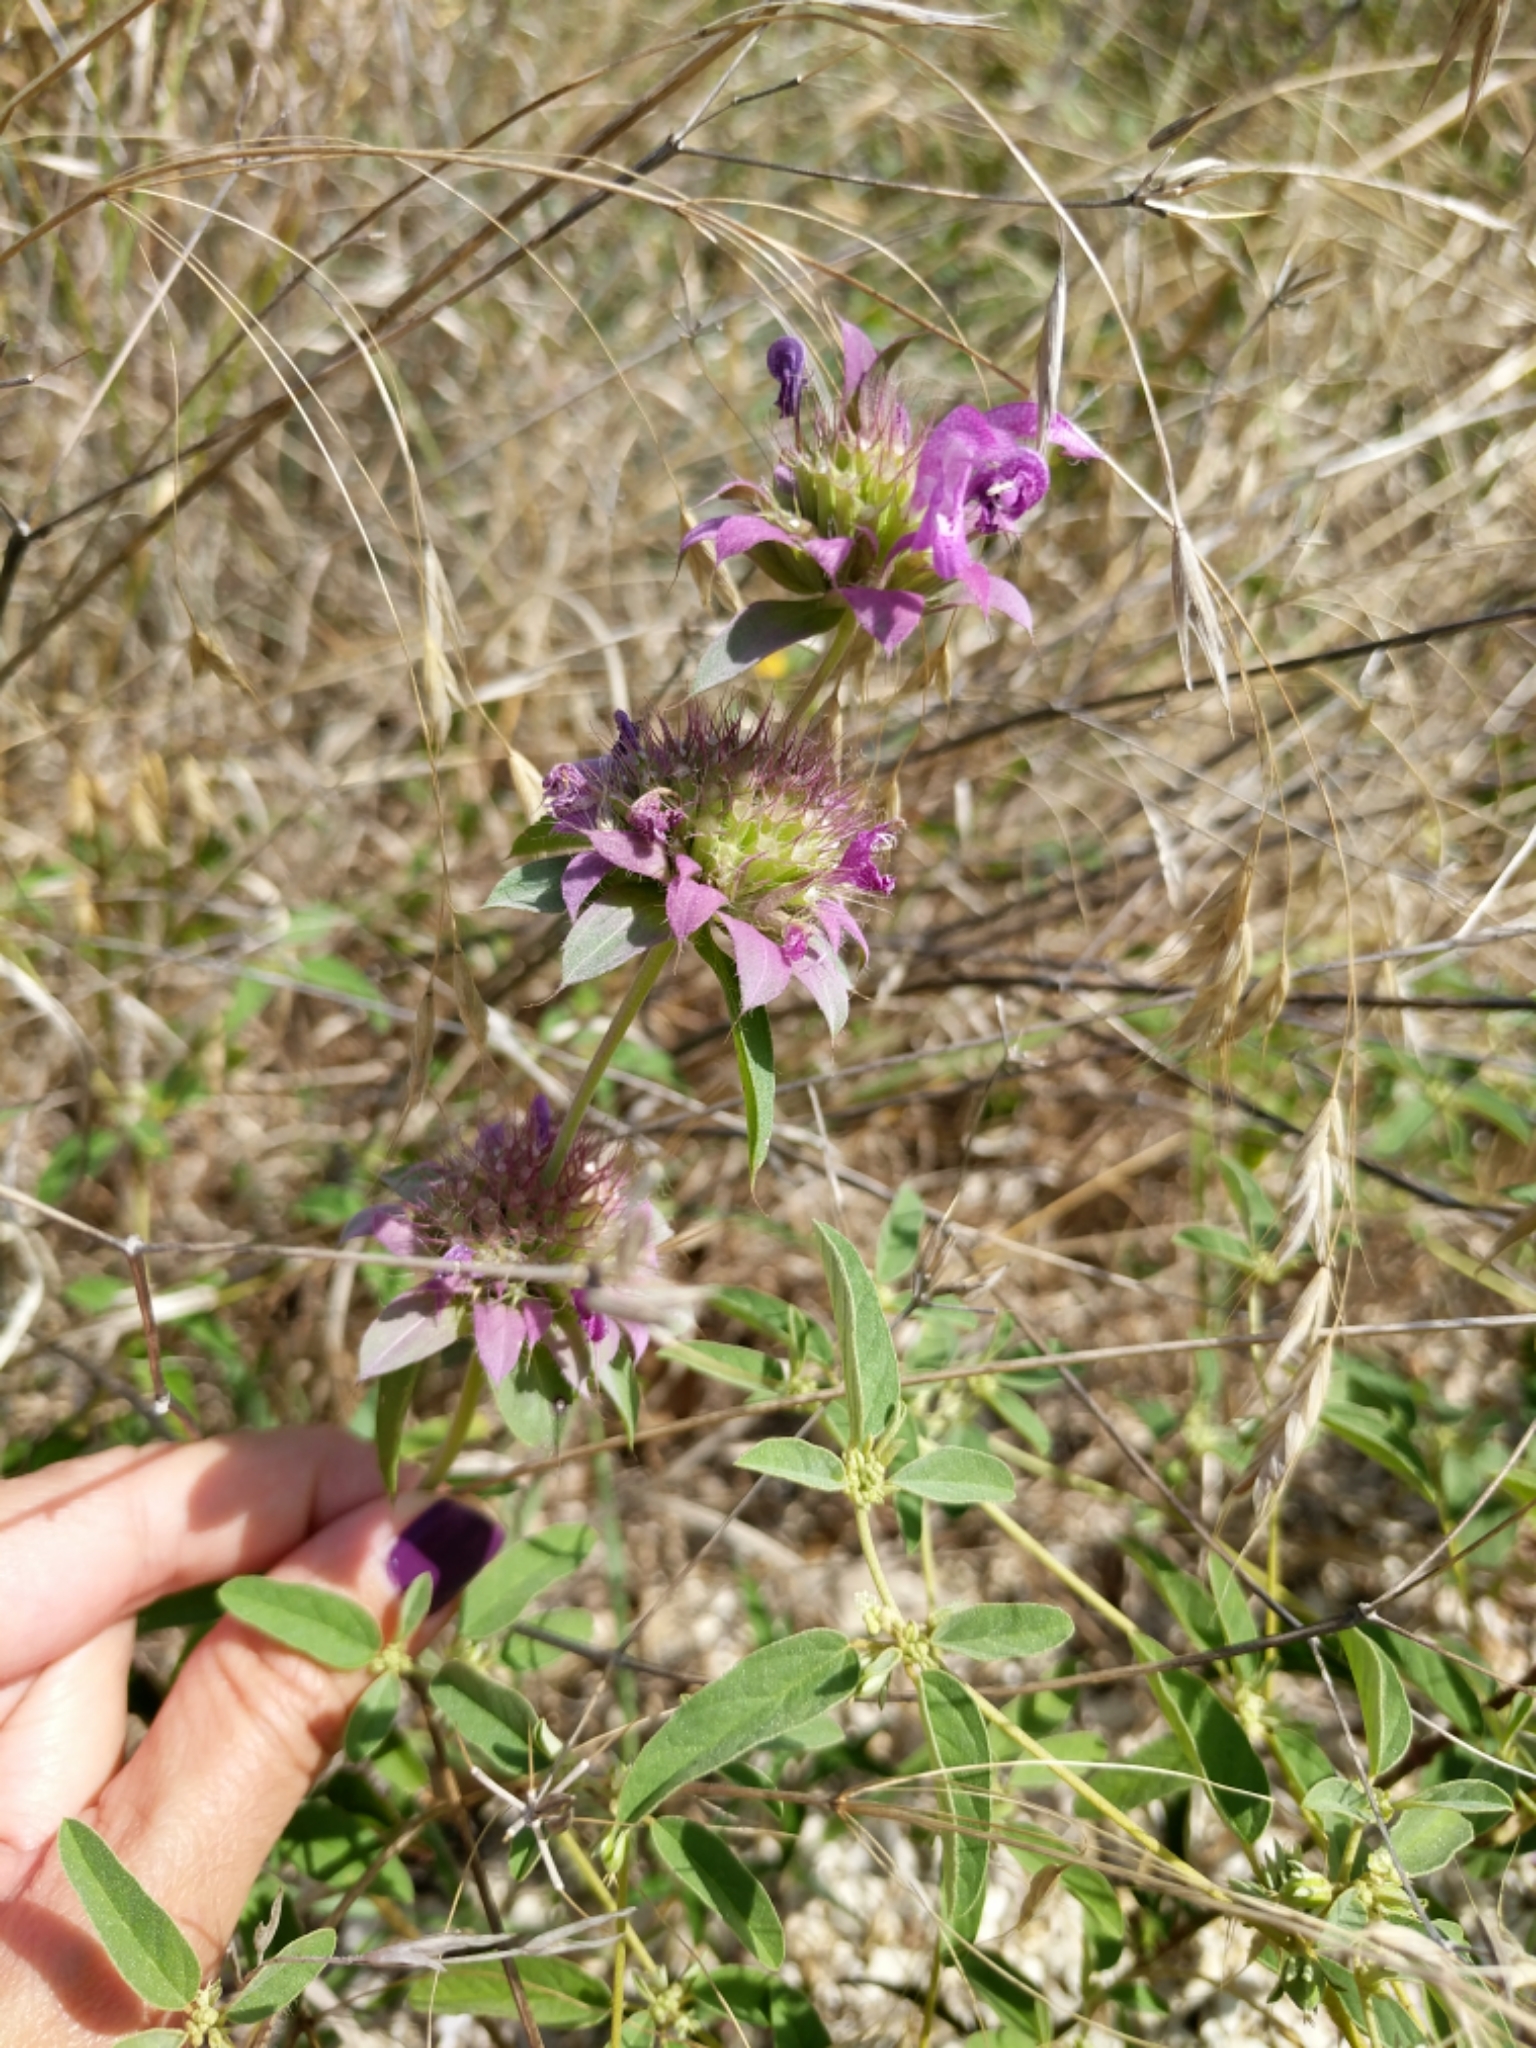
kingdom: Plantae
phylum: Tracheophyta
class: Magnoliopsida
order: Lamiales
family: Lamiaceae
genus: Monarda
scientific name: Monarda citriodora
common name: Lemon beebalm
